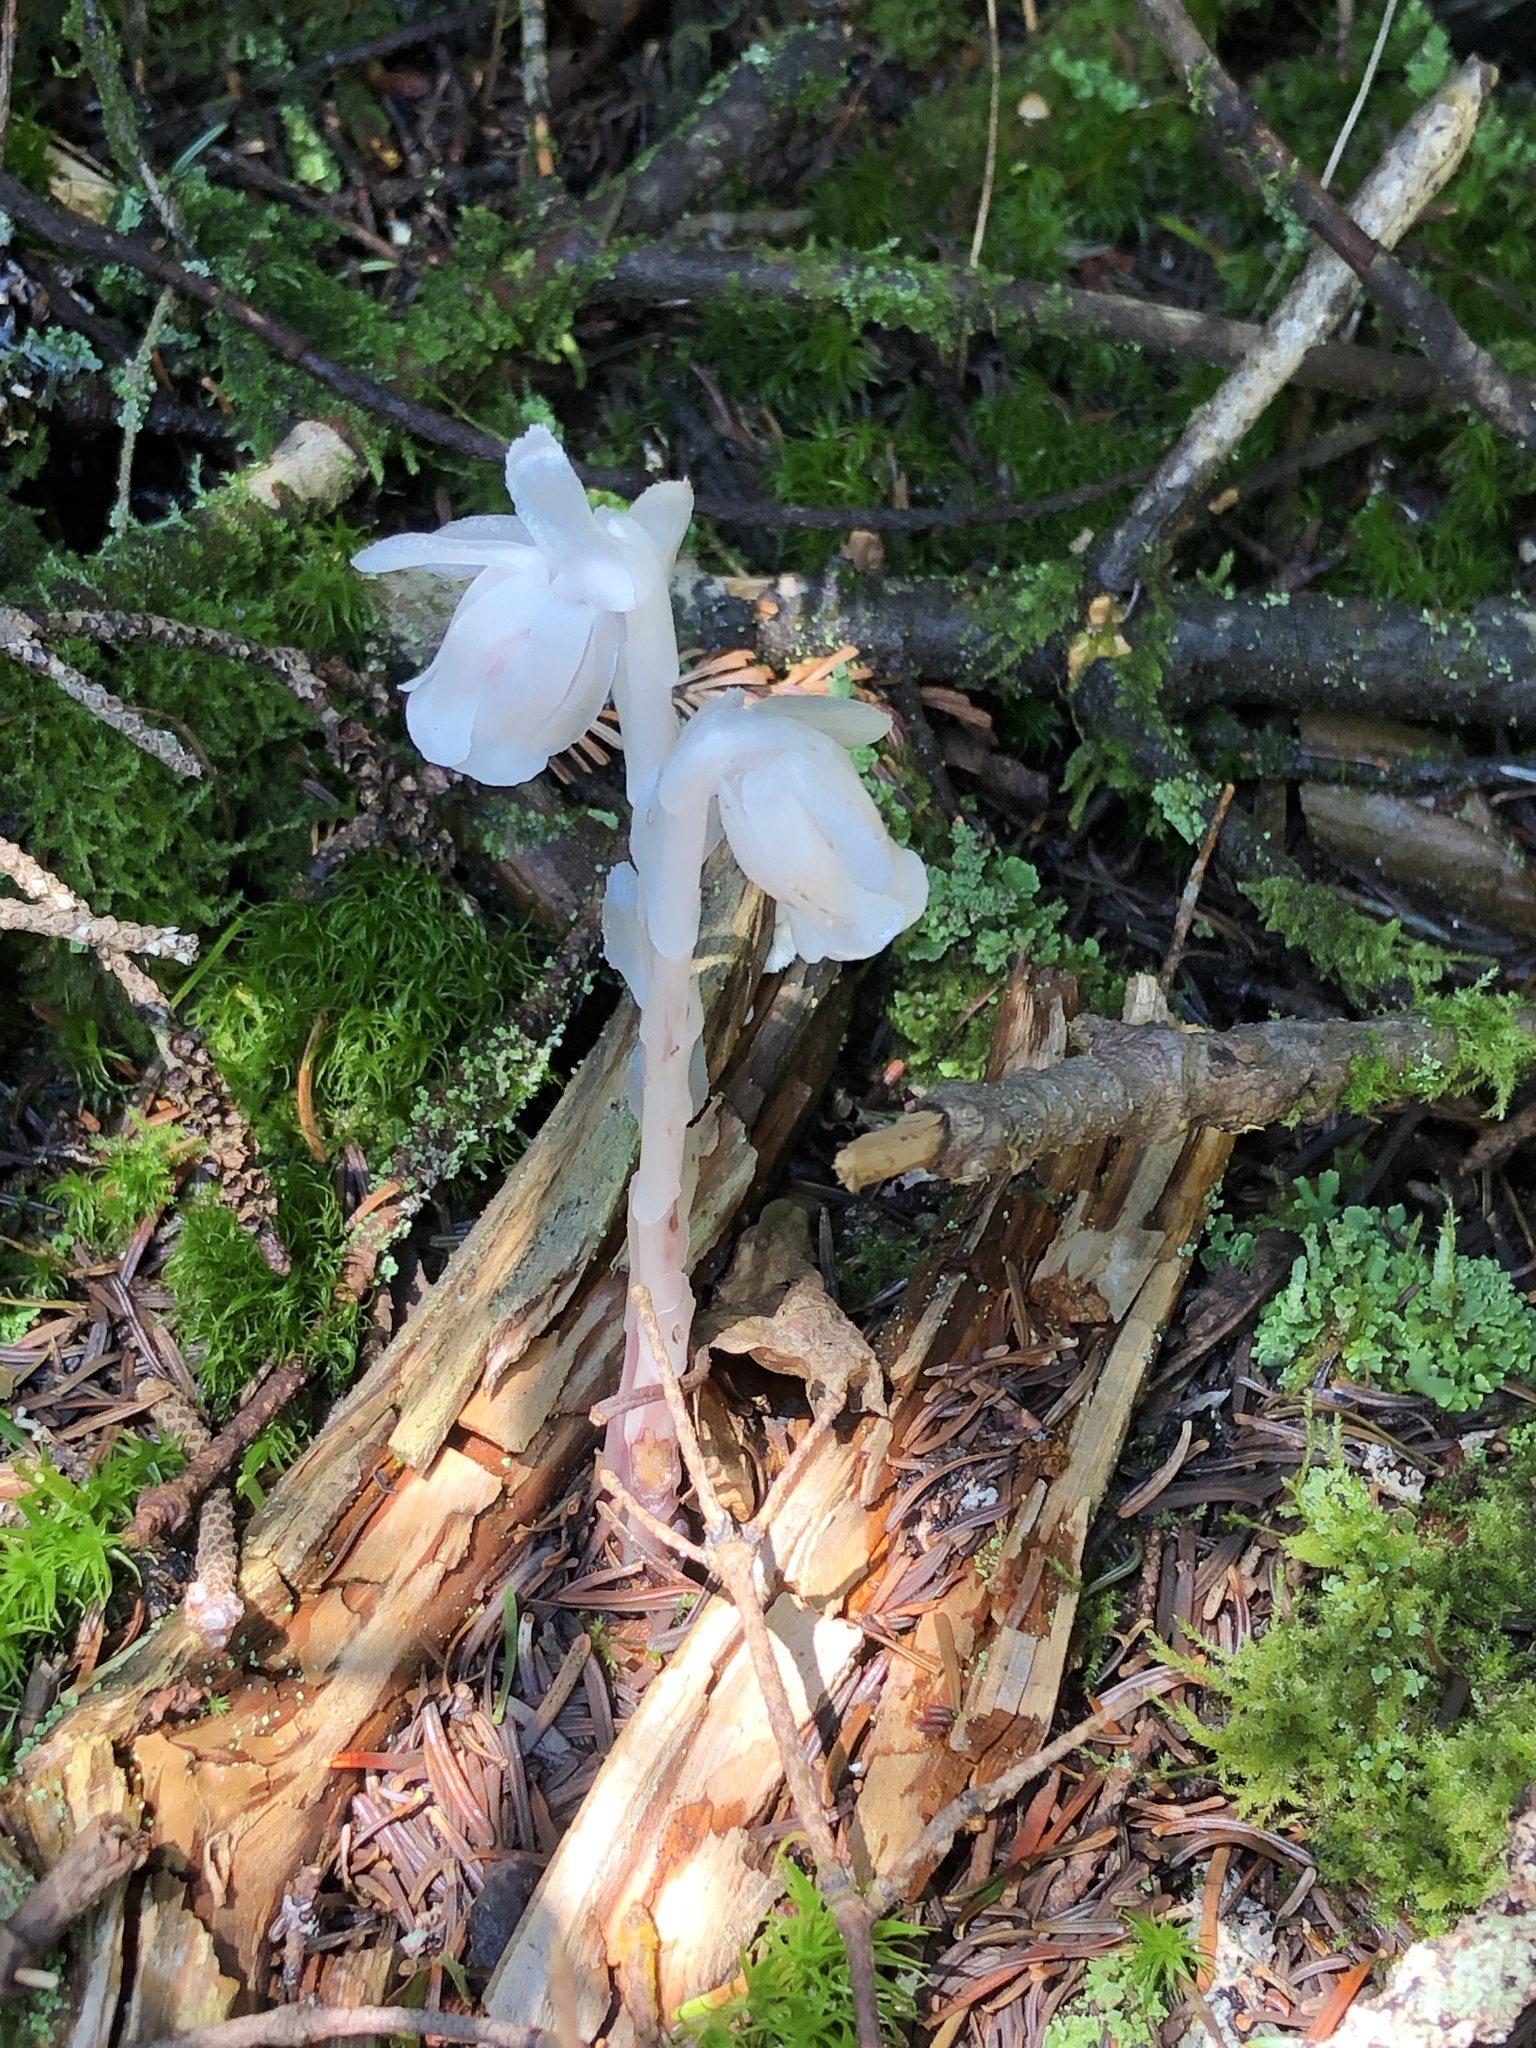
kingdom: Plantae
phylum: Tracheophyta
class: Magnoliopsida
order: Ericales
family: Ericaceae
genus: Monotropa
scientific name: Monotropa uniflora
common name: Convulsion root
